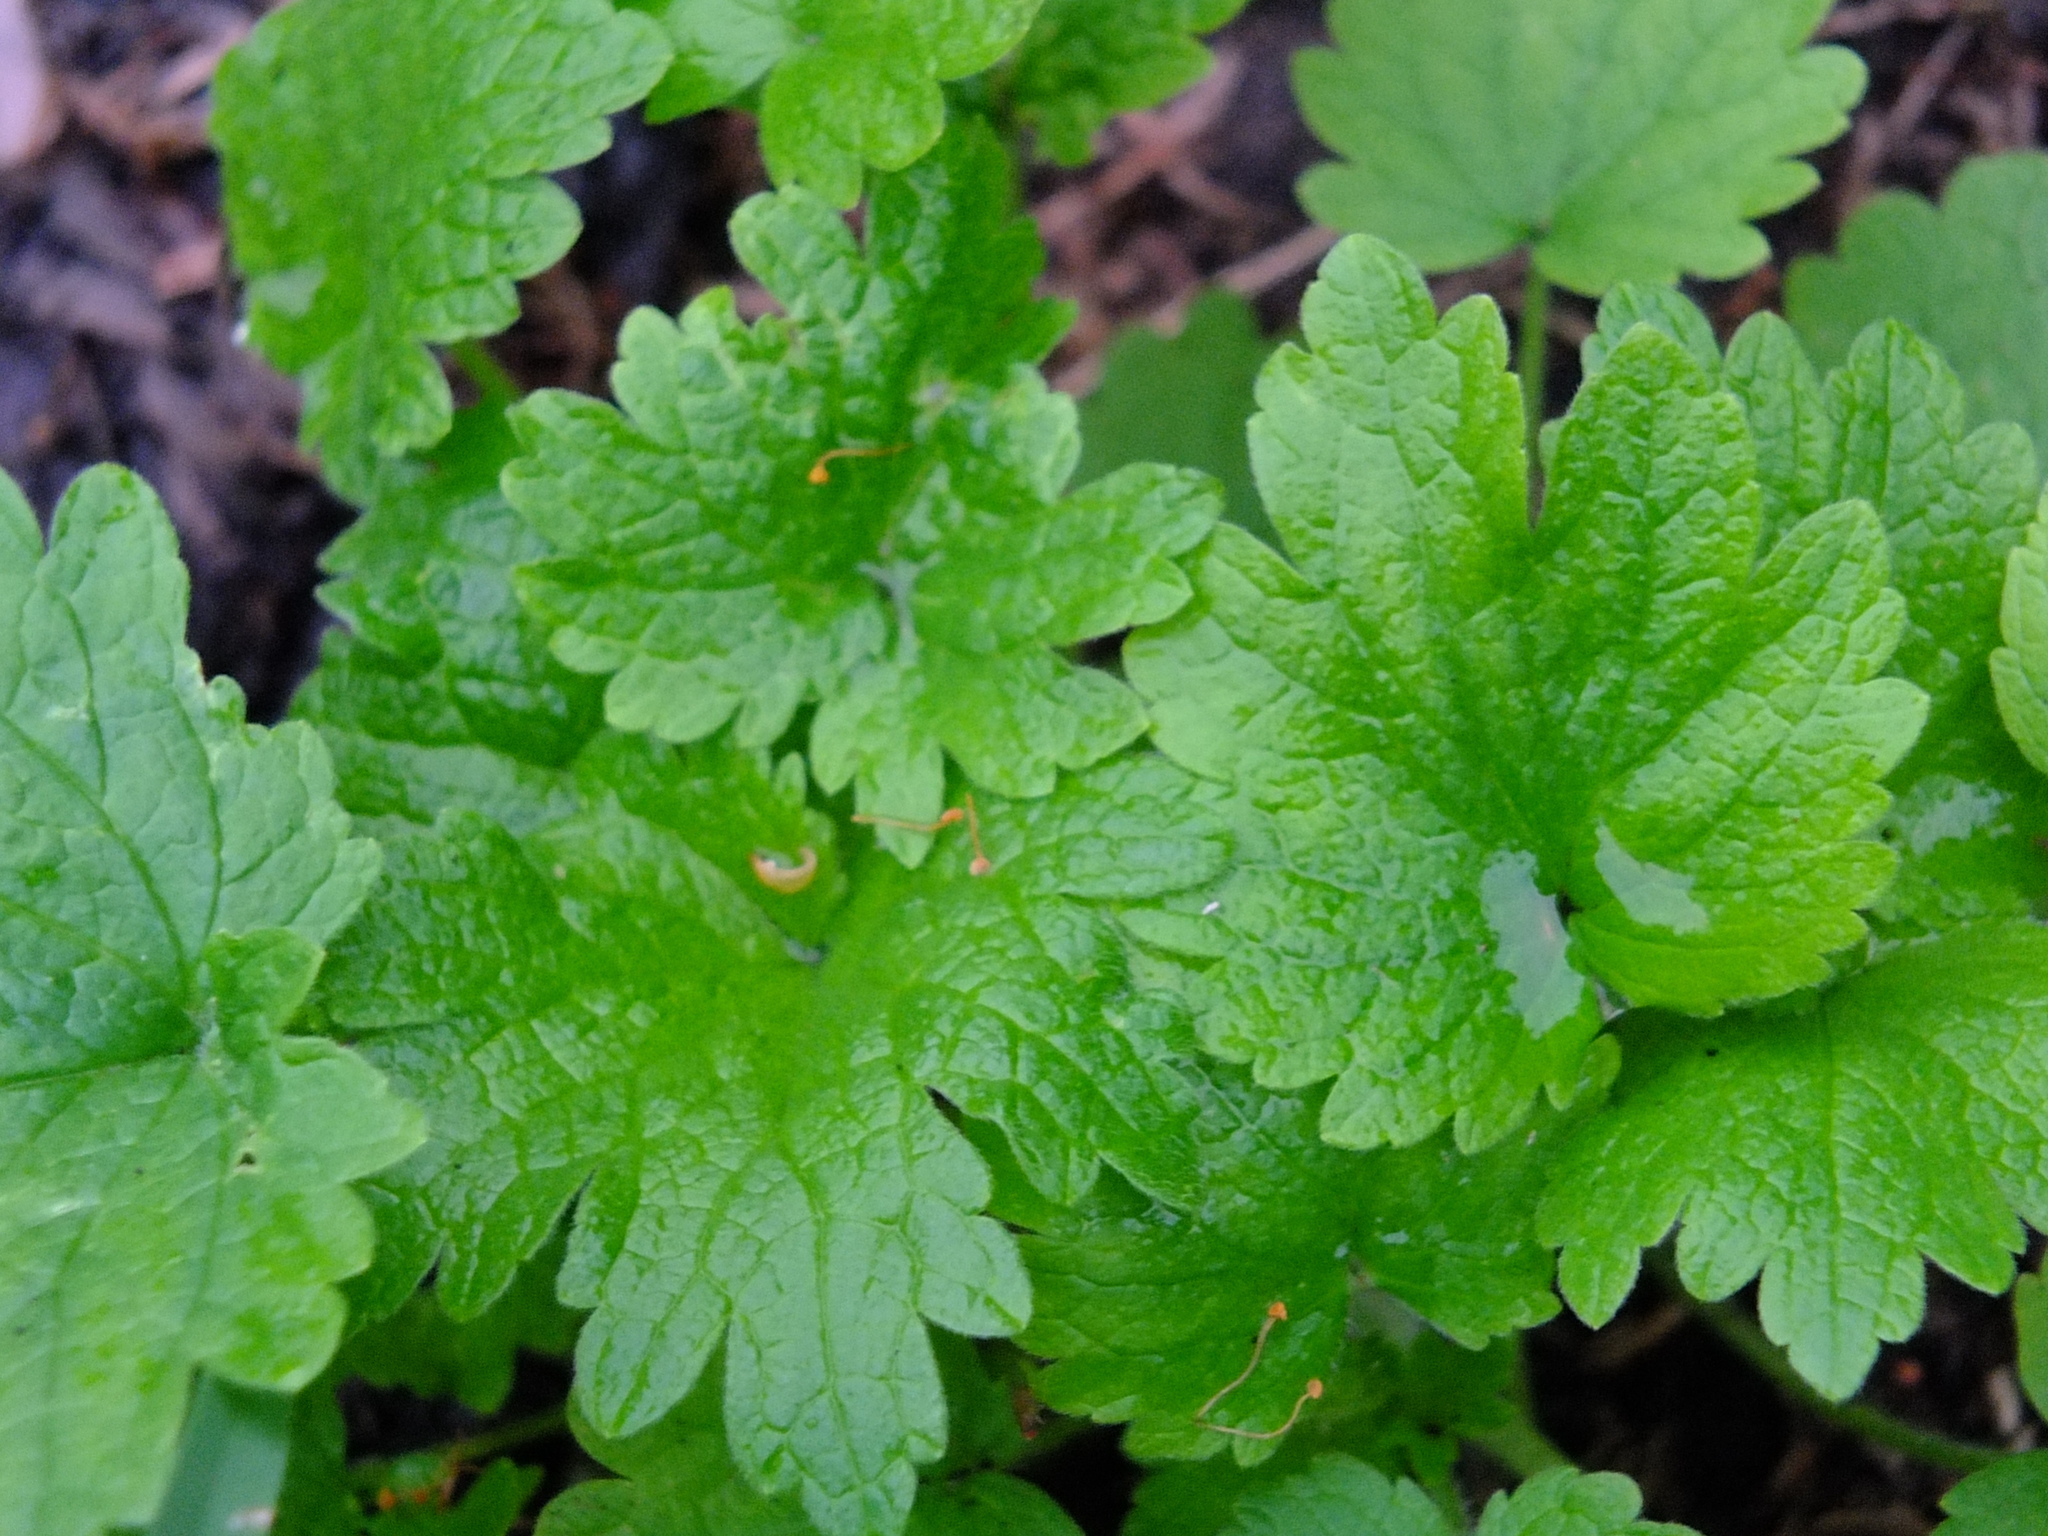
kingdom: Plantae
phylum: Tracheophyta
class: Magnoliopsida
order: Lamiales
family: Lamiaceae
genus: Leonurus
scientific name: Leonurus quinquelobatus
